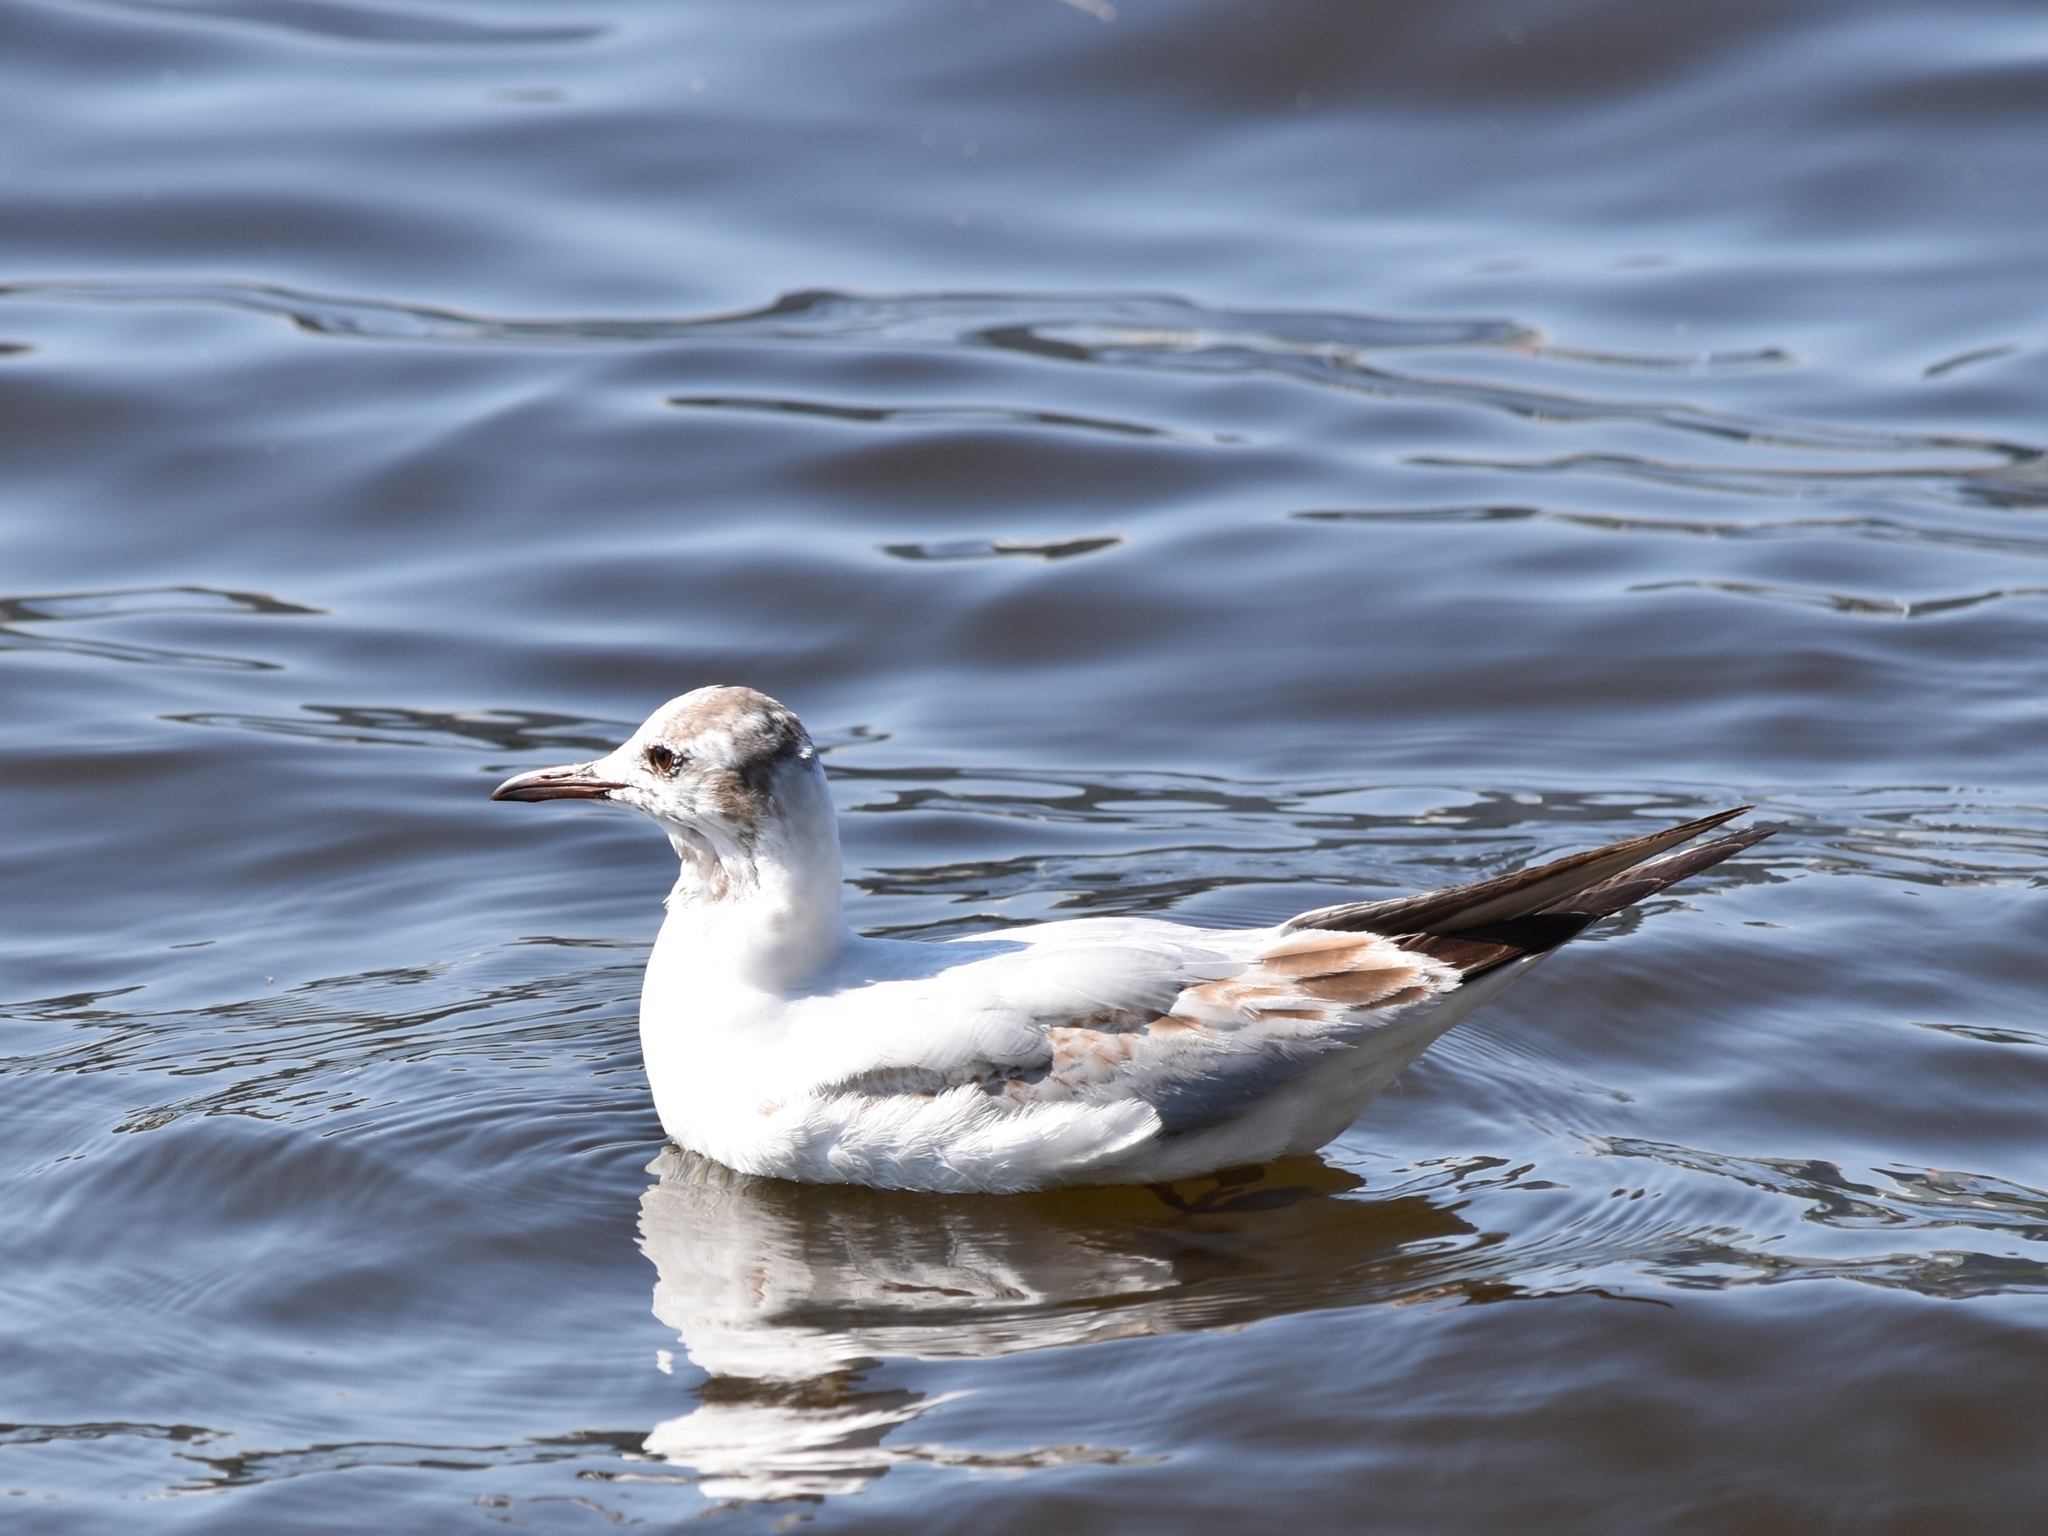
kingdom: Animalia
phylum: Chordata
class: Aves
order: Charadriiformes
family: Laridae
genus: Chroicocephalus
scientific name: Chroicocephalus ridibundus
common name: Black-headed gull
